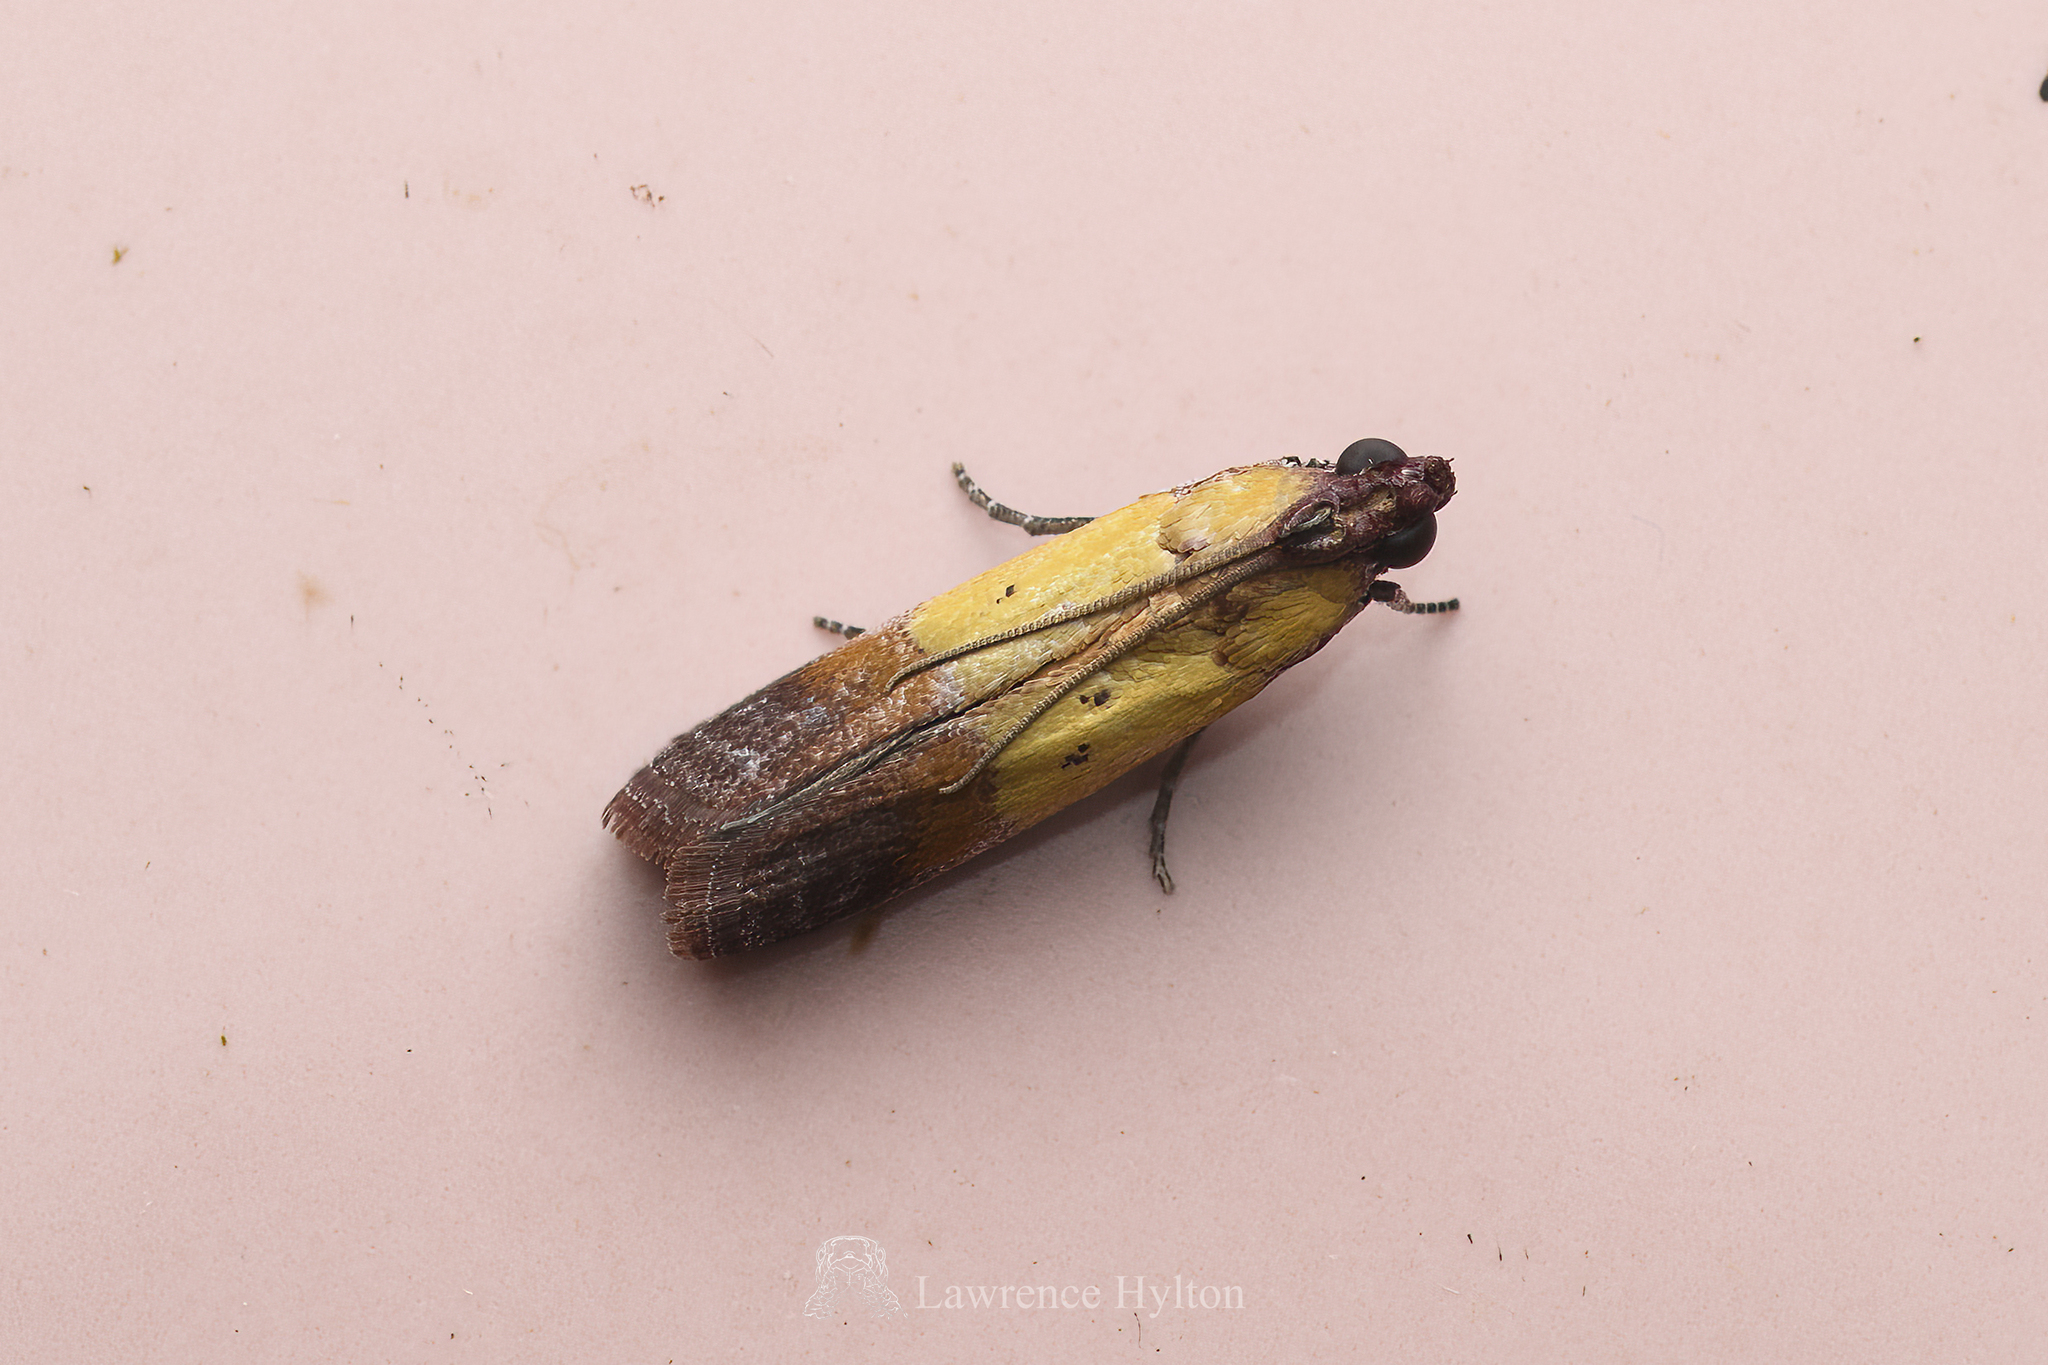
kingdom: Animalia
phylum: Arthropoda
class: Insecta
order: Lepidoptera
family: Pyralidae
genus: Piesmopoda
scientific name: Piesmopoda
